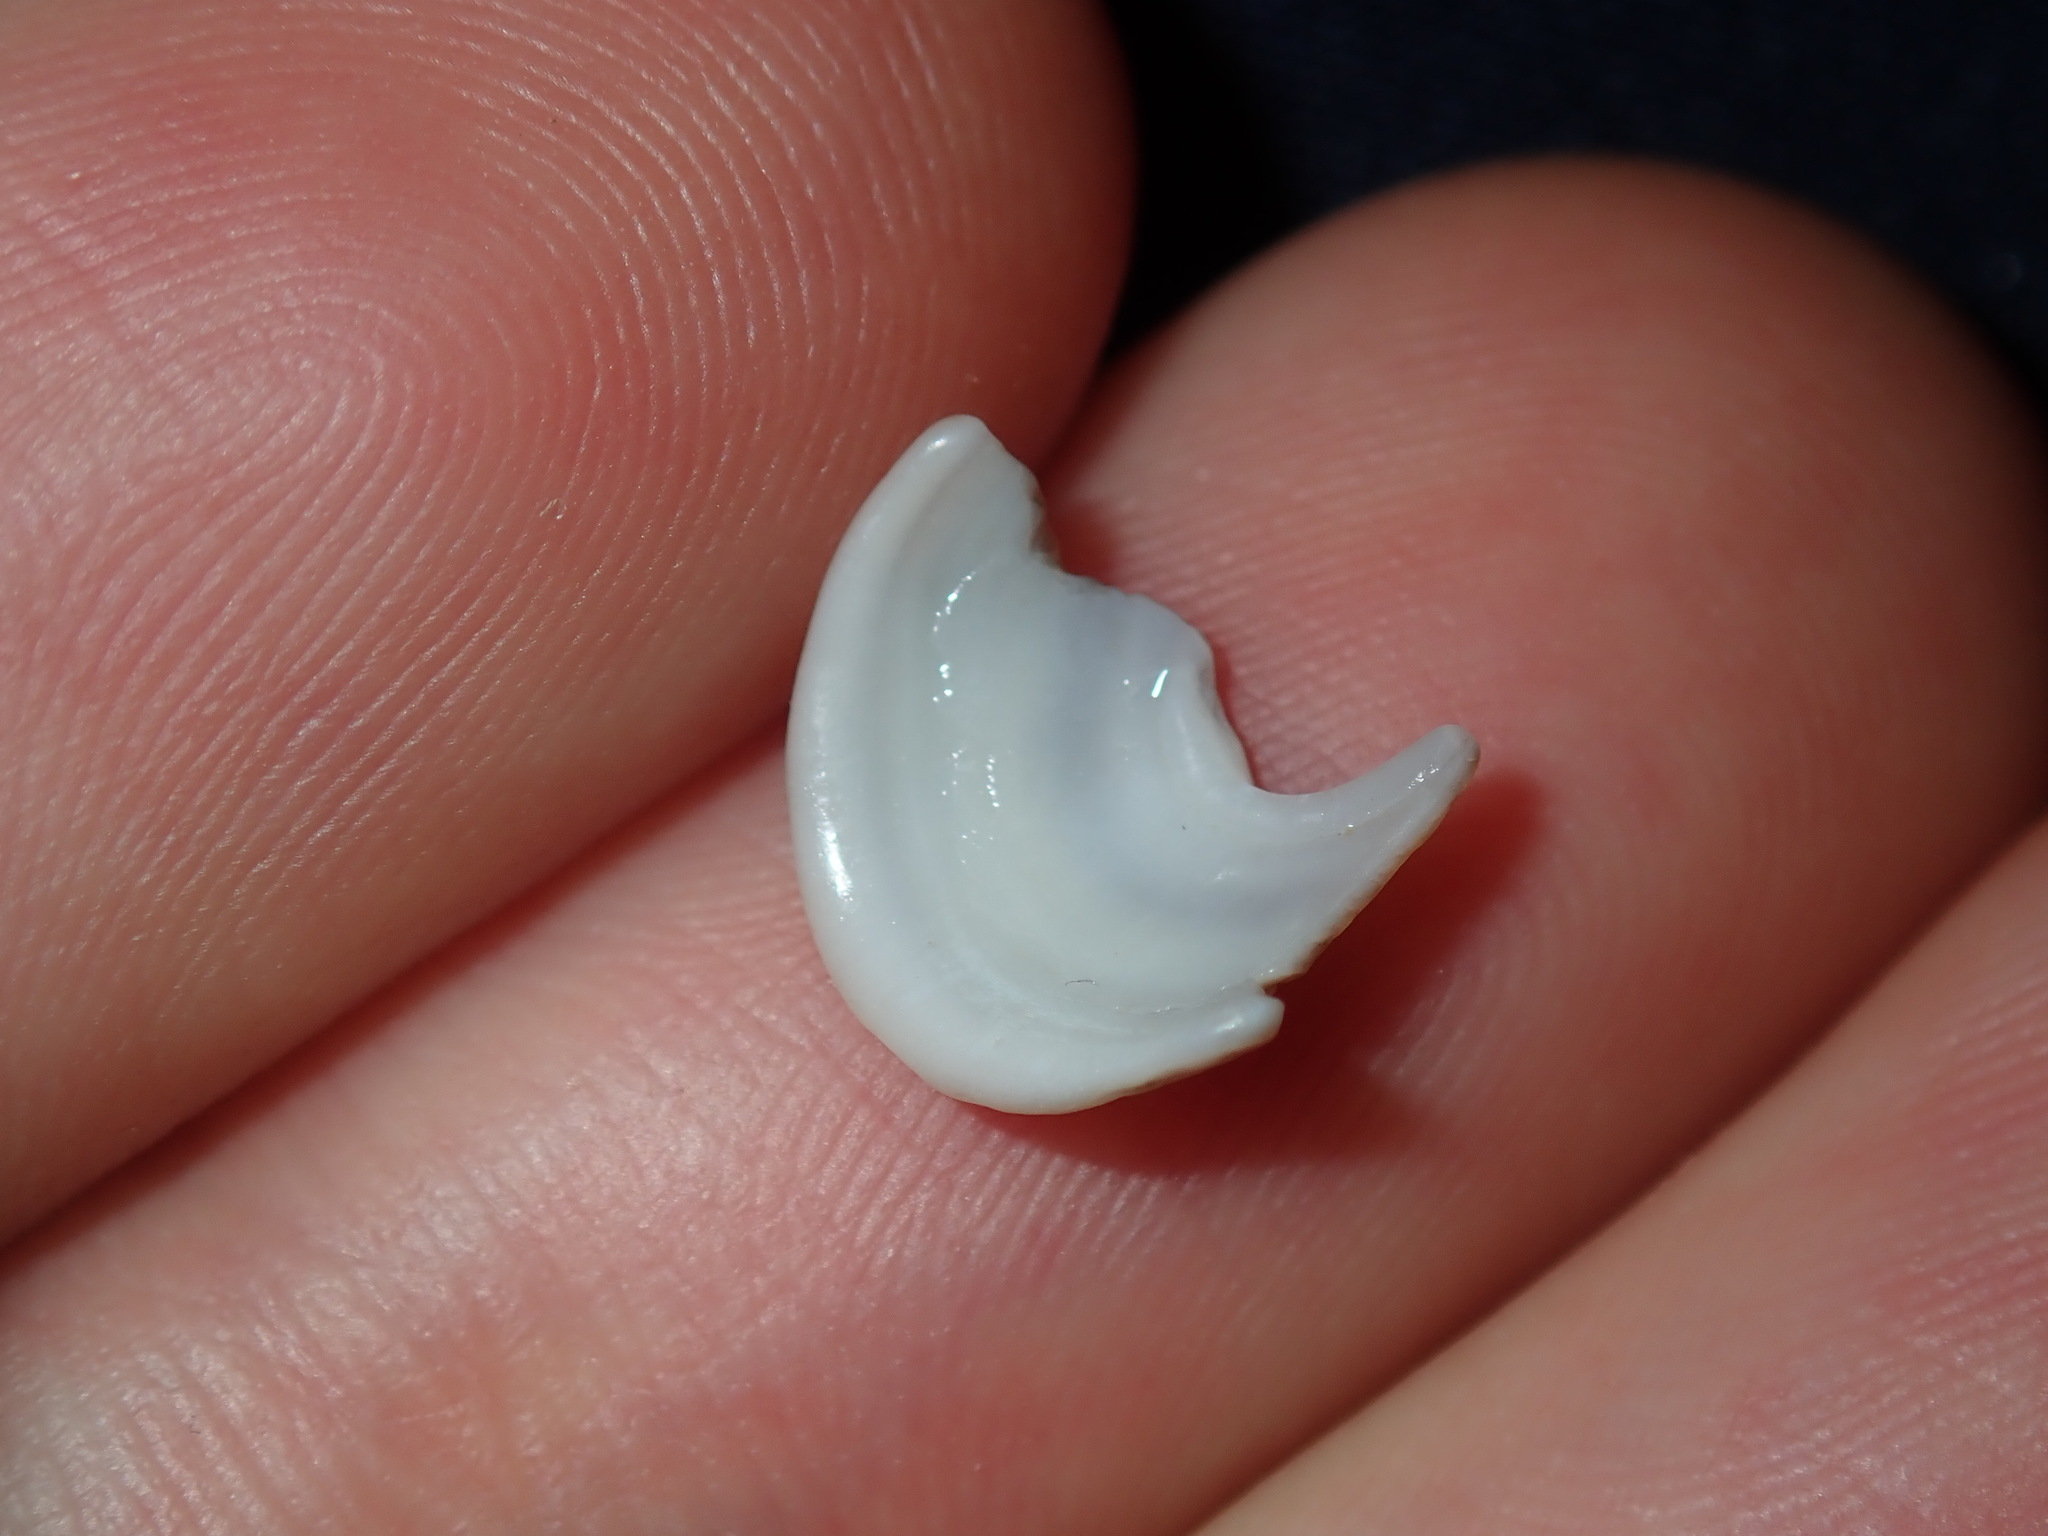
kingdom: Animalia
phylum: Mollusca
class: Gastropoda
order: Lepetellida
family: Fissurellidae
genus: Amblychilepas
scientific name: Amblychilepas nigrita
